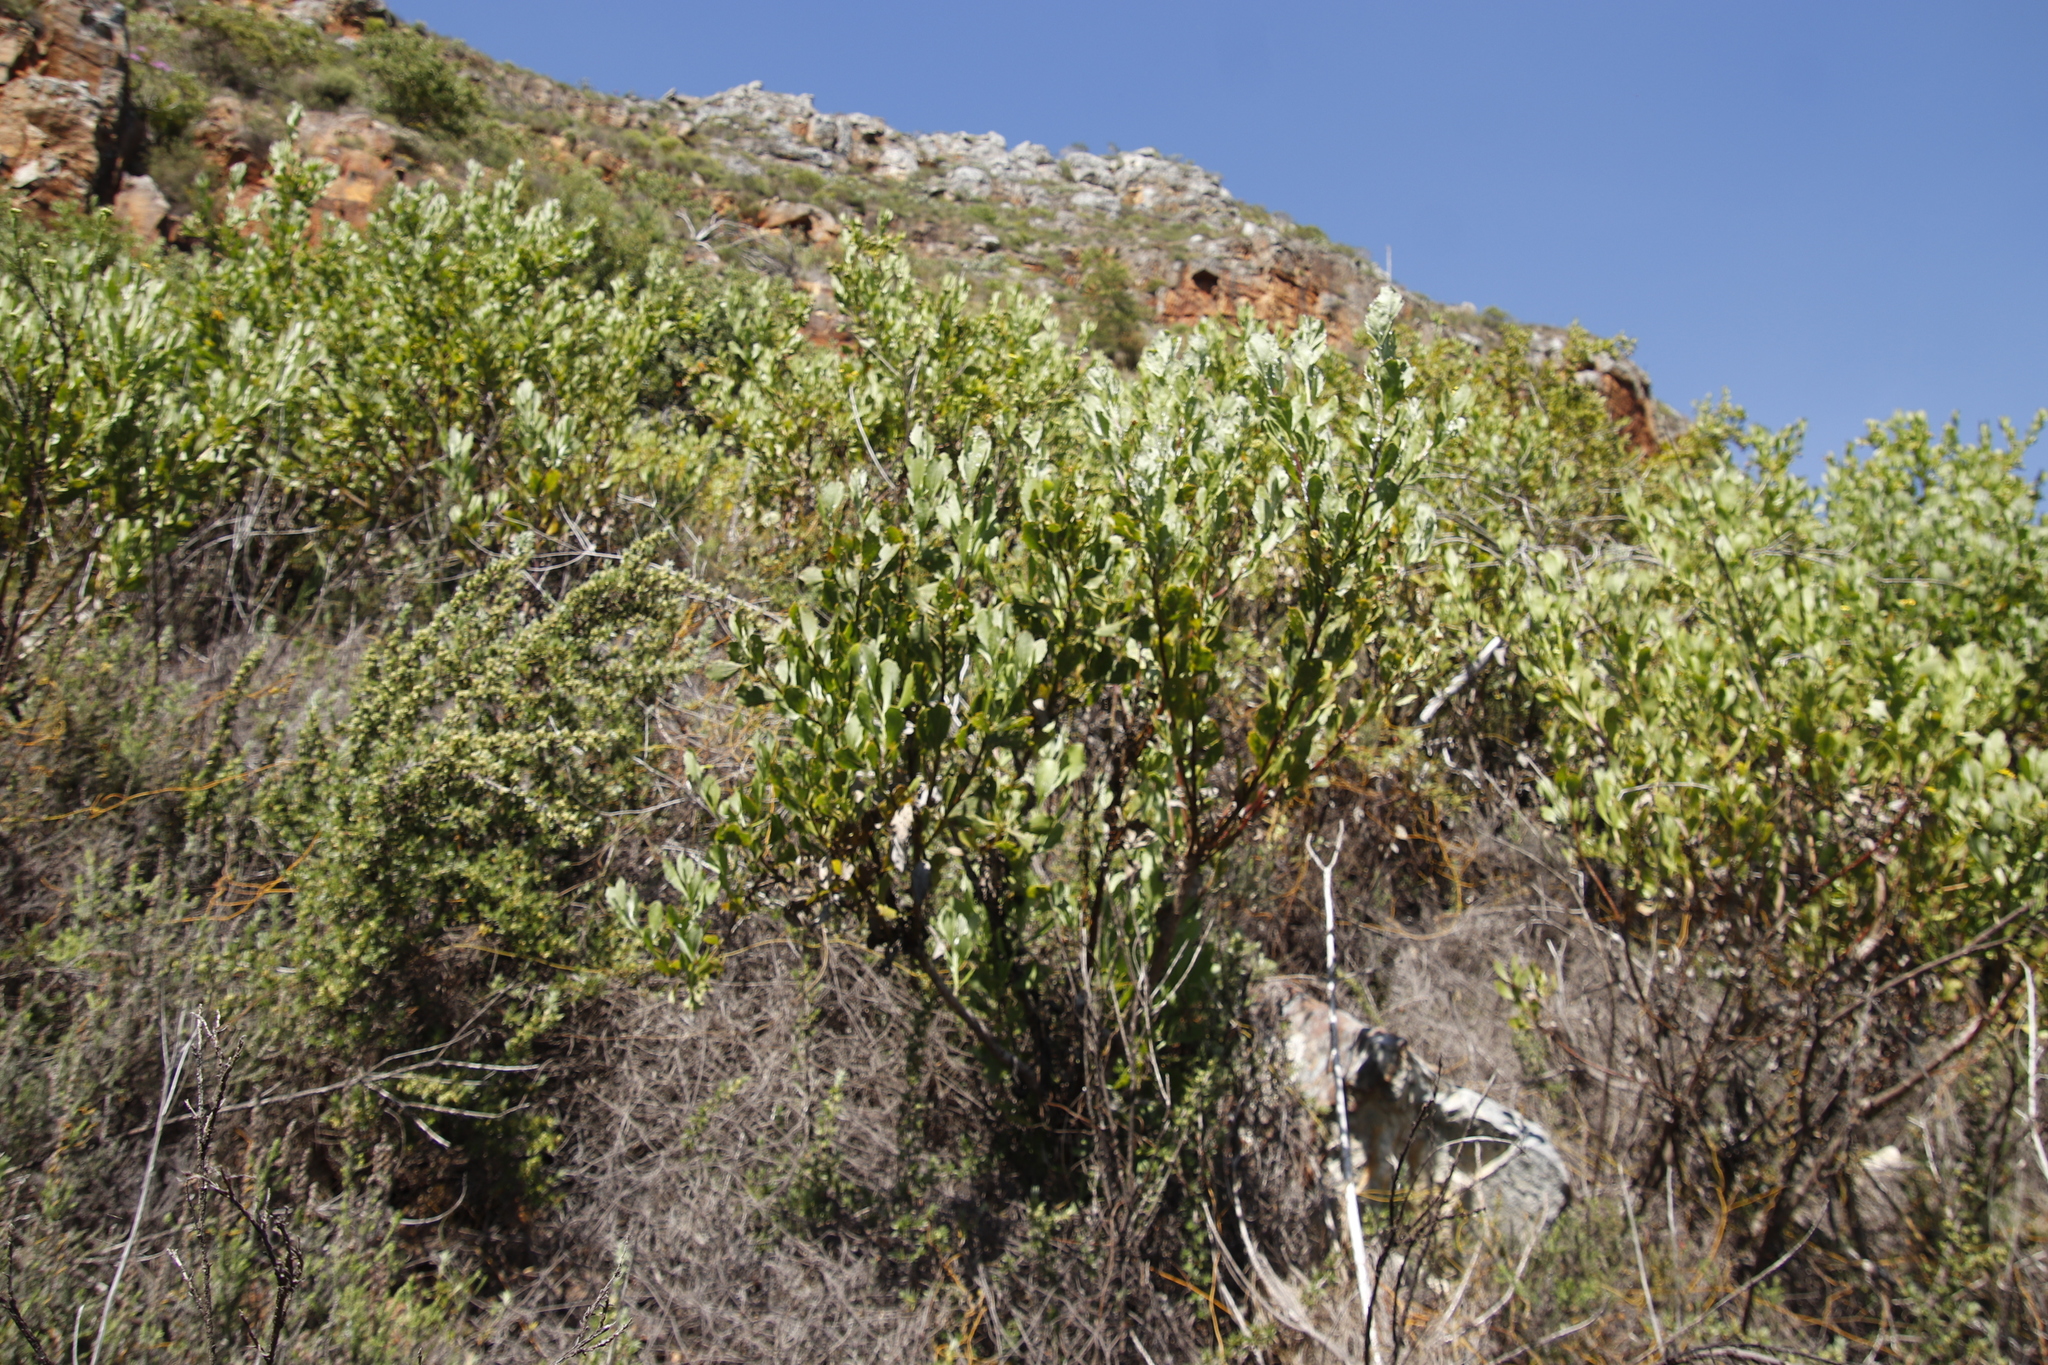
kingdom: Plantae
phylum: Tracheophyta
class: Magnoliopsida
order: Asterales
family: Asteraceae
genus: Osteospermum
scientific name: Osteospermum moniliferum
